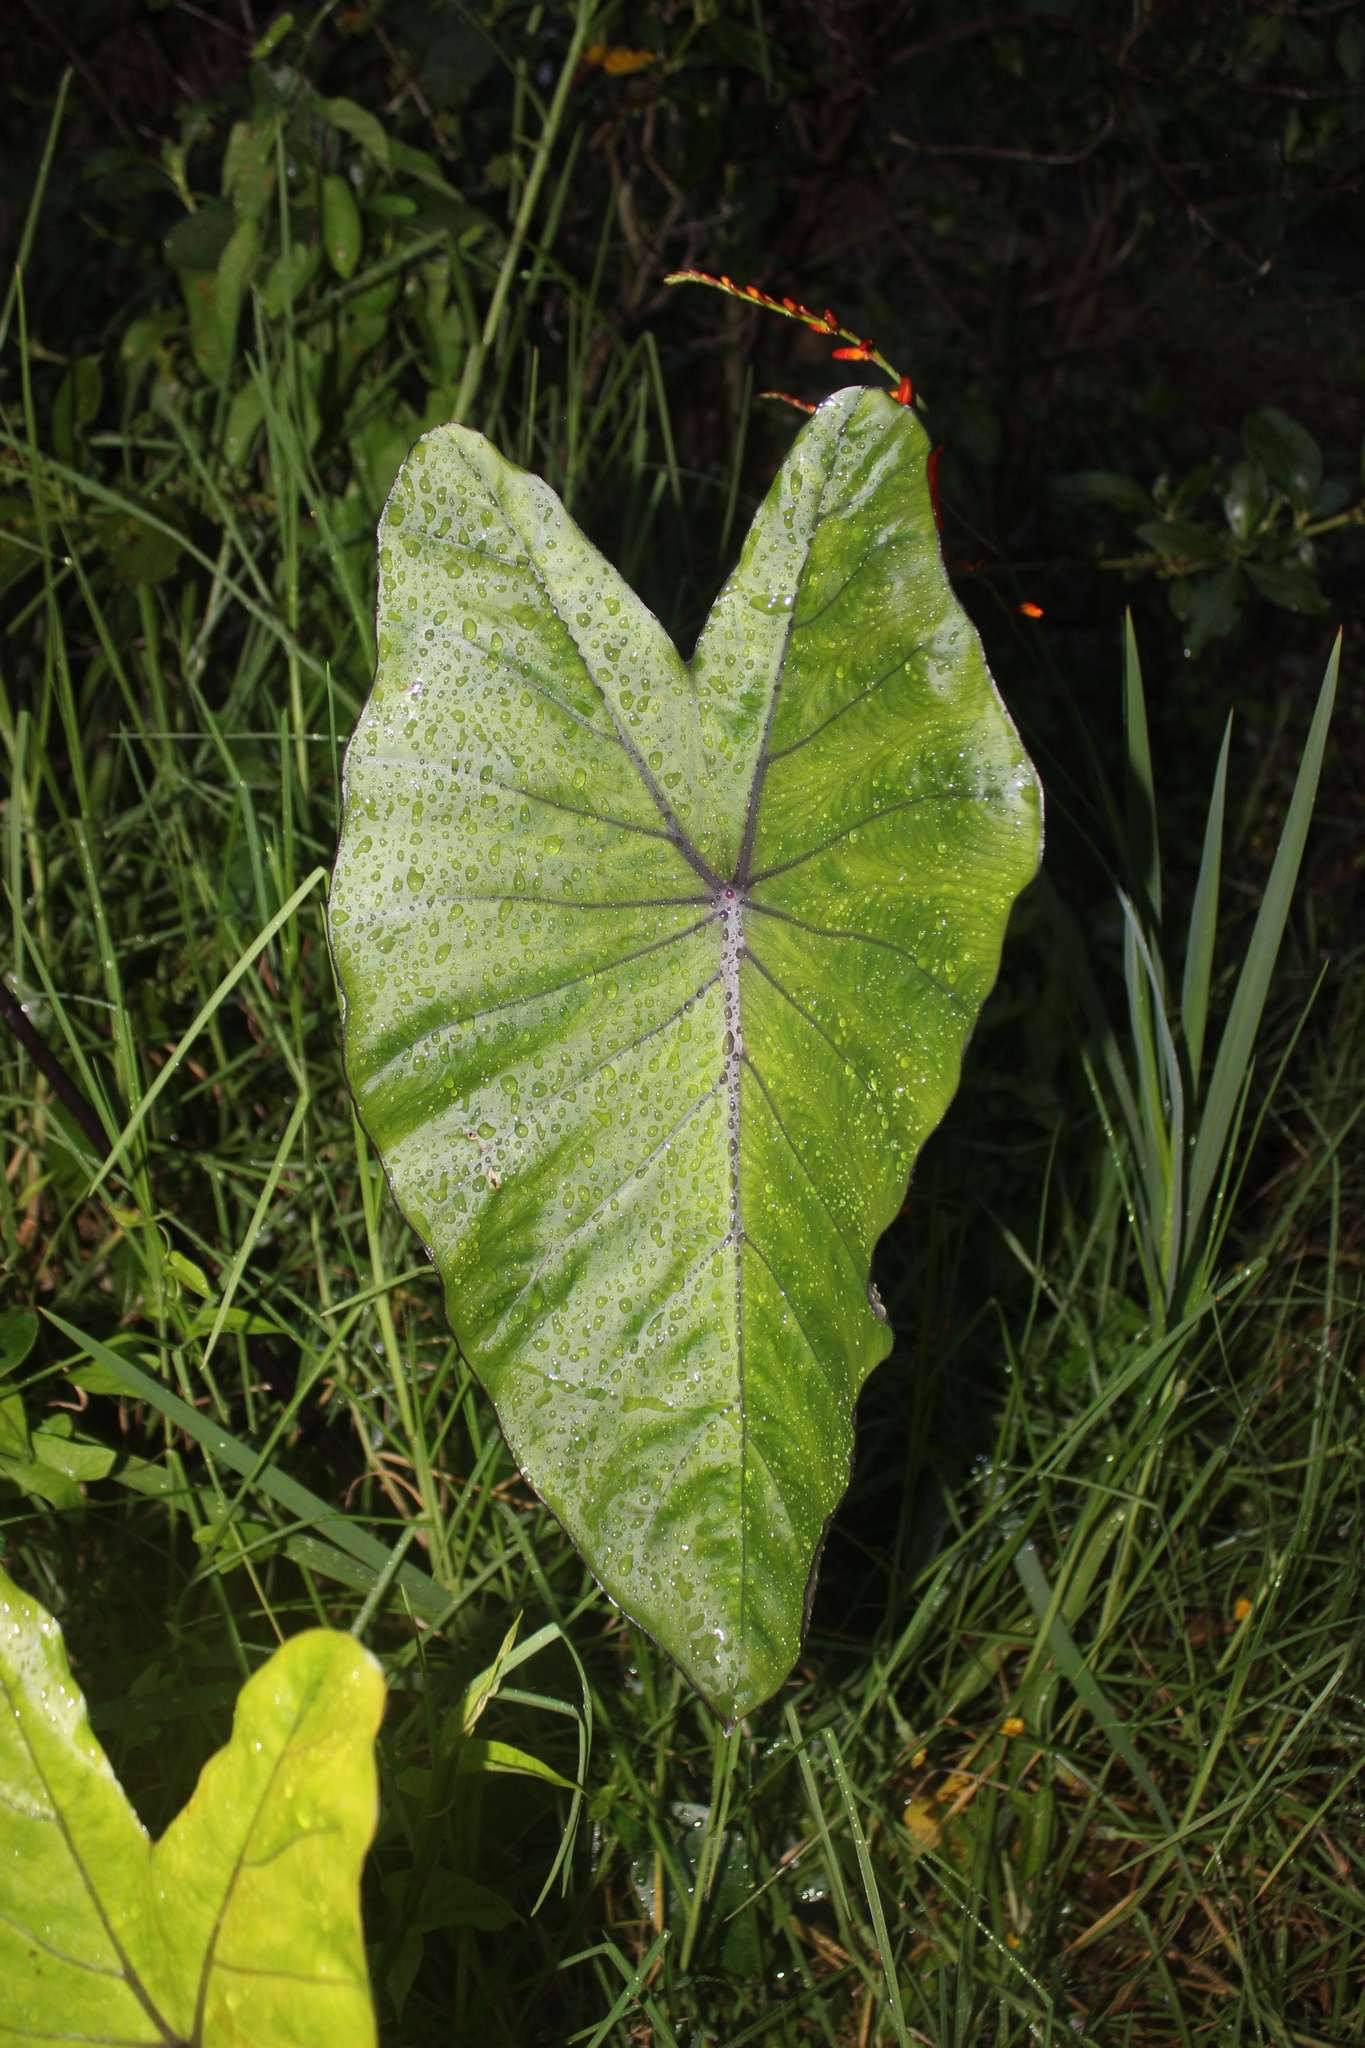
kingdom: Plantae
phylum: Tracheophyta
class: Liliopsida
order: Alismatales
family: Araceae
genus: Colocasia
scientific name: Colocasia fontanesii
